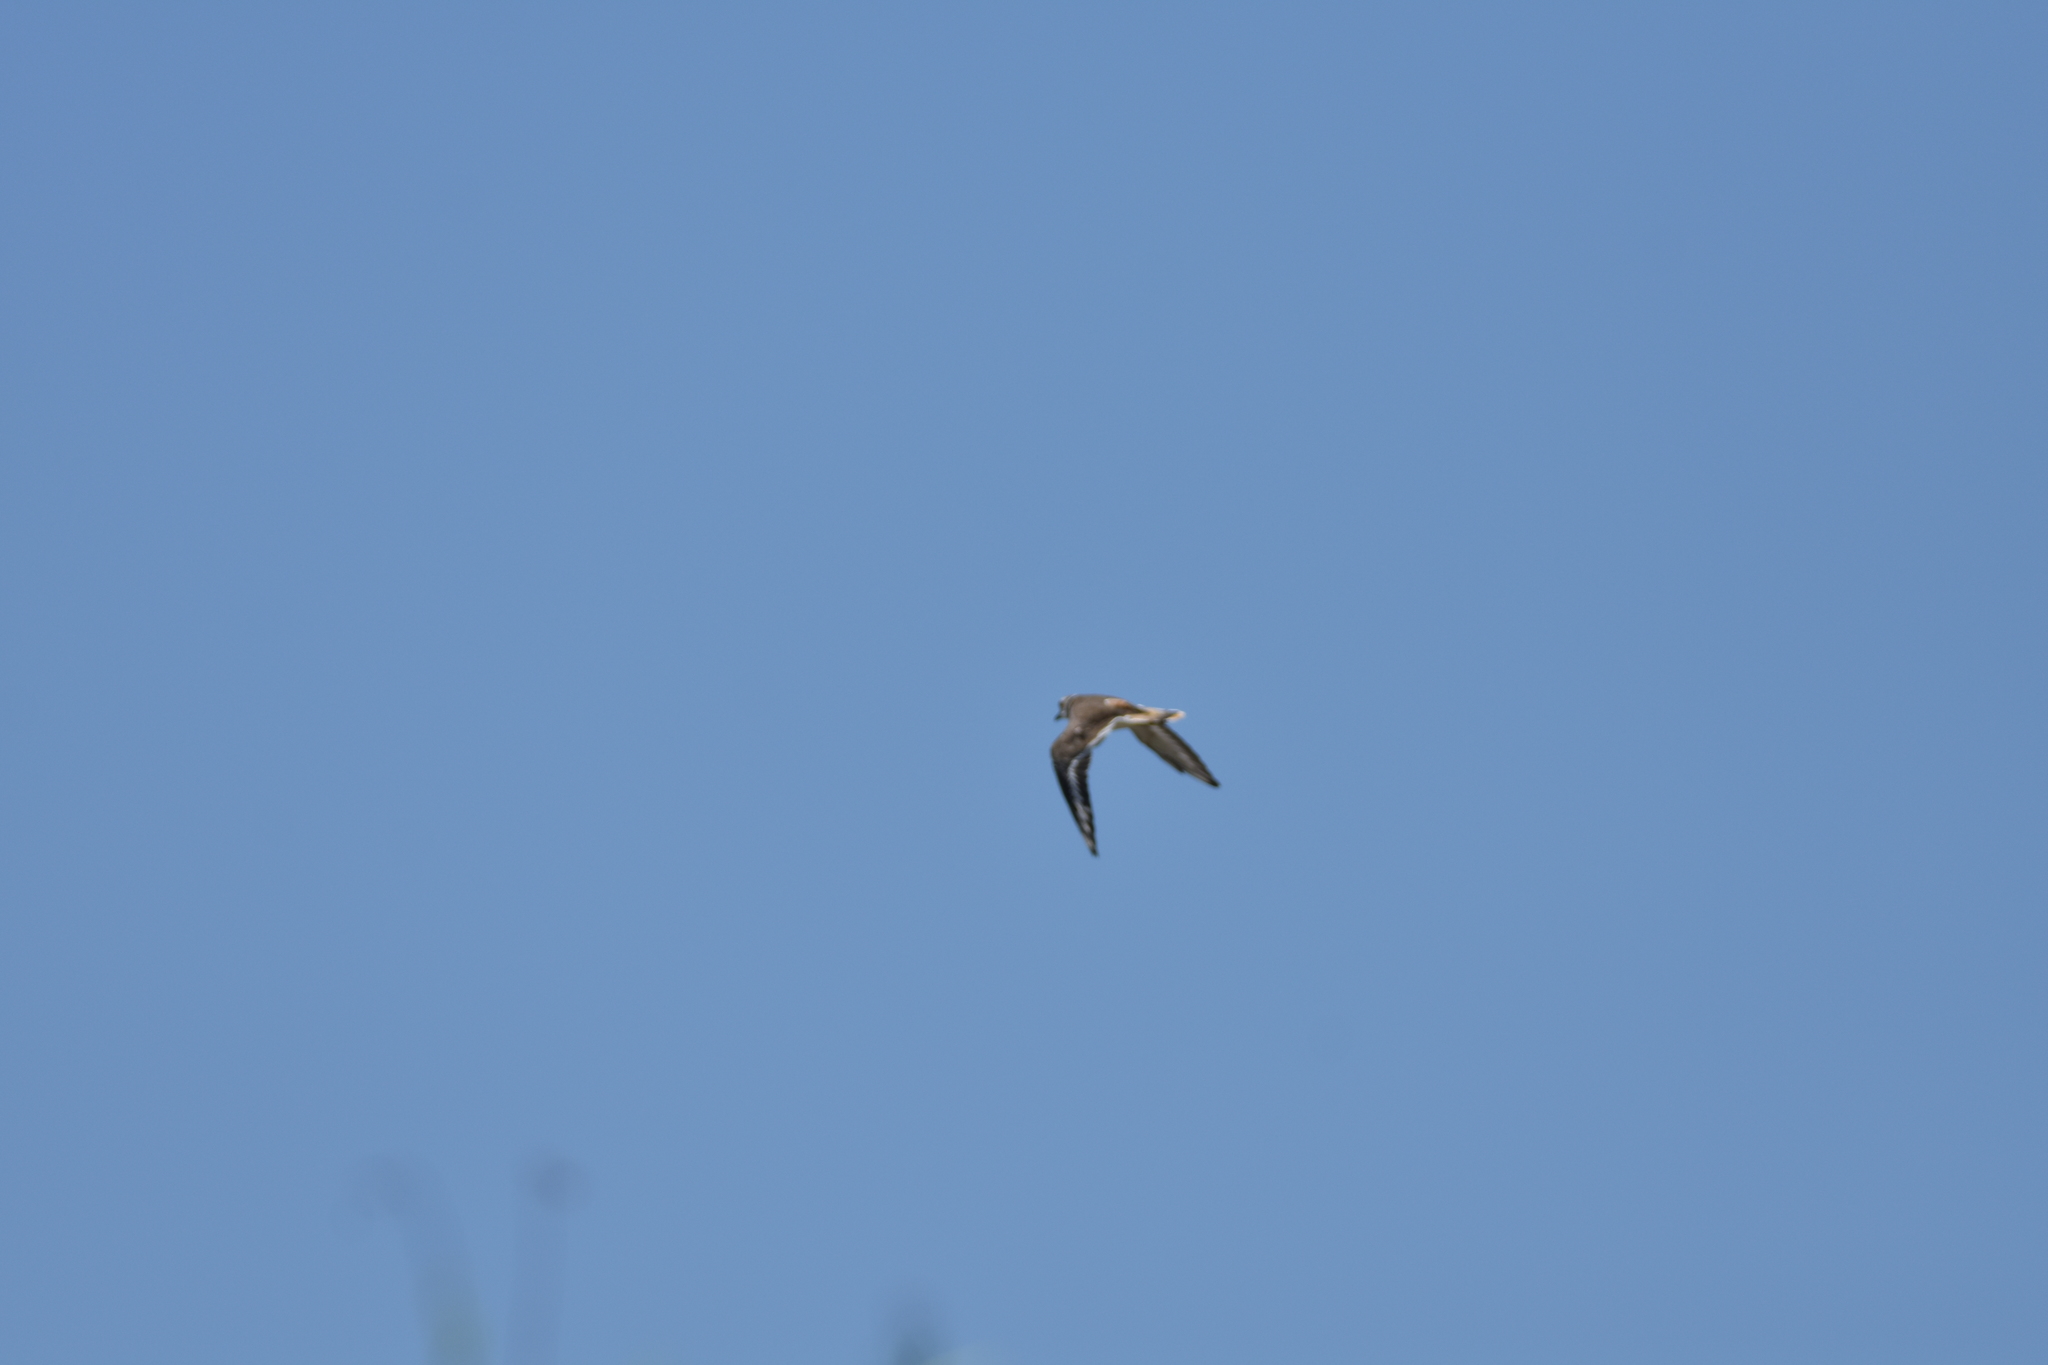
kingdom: Animalia
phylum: Chordata
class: Aves
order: Charadriiformes
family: Charadriidae
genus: Charadrius
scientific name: Charadrius vociferus
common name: Killdeer
